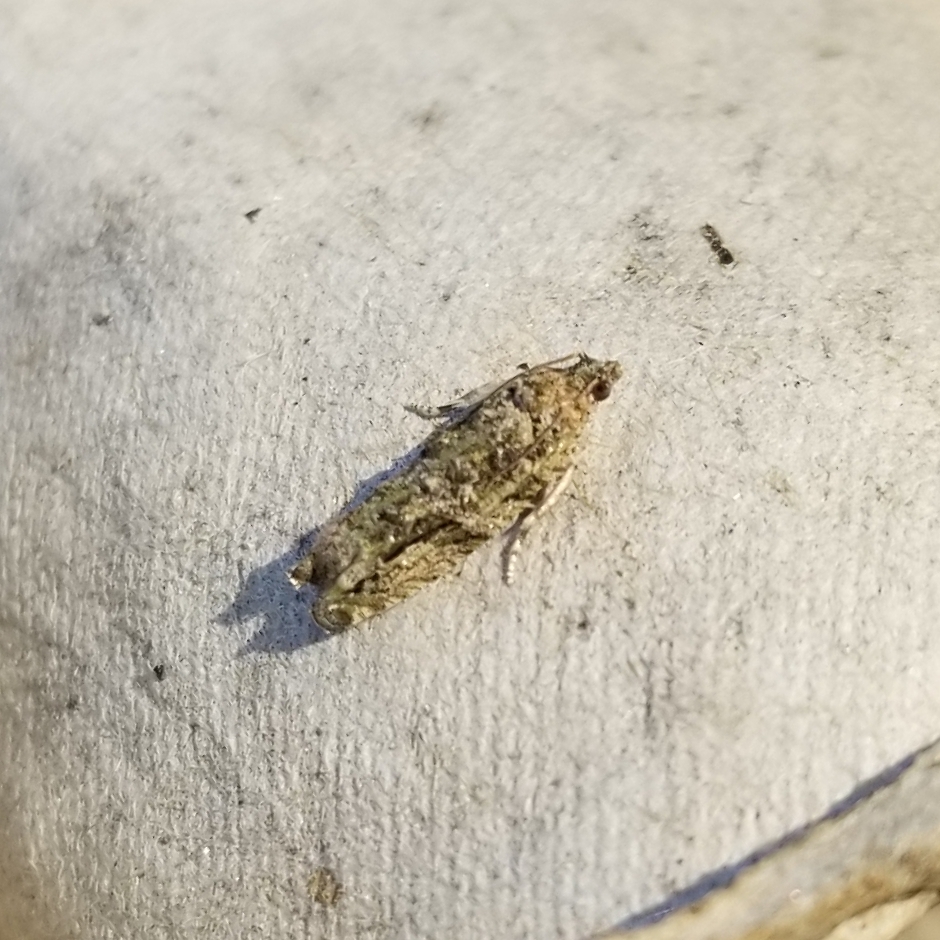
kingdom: Animalia
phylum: Arthropoda
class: Insecta
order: Lepidoptera
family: Tortricidae
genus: Proteoteras
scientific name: Proteoteras aesculana
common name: Maple twig borer moth
